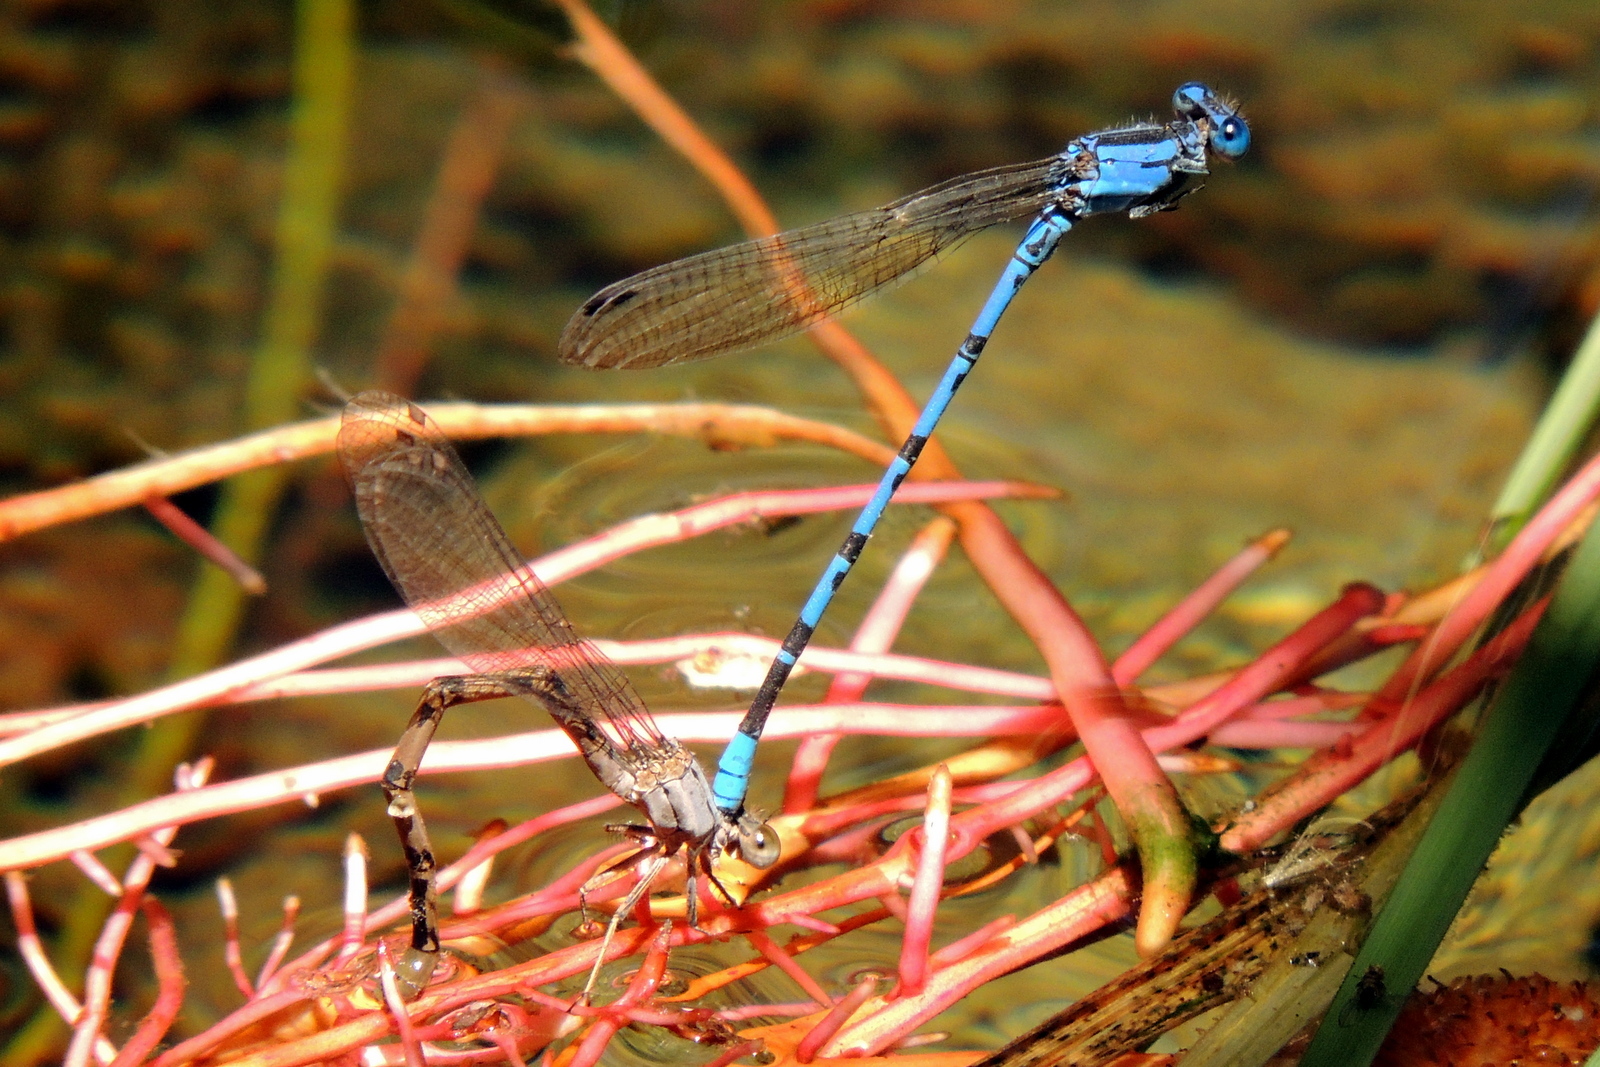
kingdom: Animalia
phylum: Arthropoda
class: Insecta
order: Odonata
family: Coenagrionidae
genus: Argia
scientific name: Argia vivida
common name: Vivid dancer
